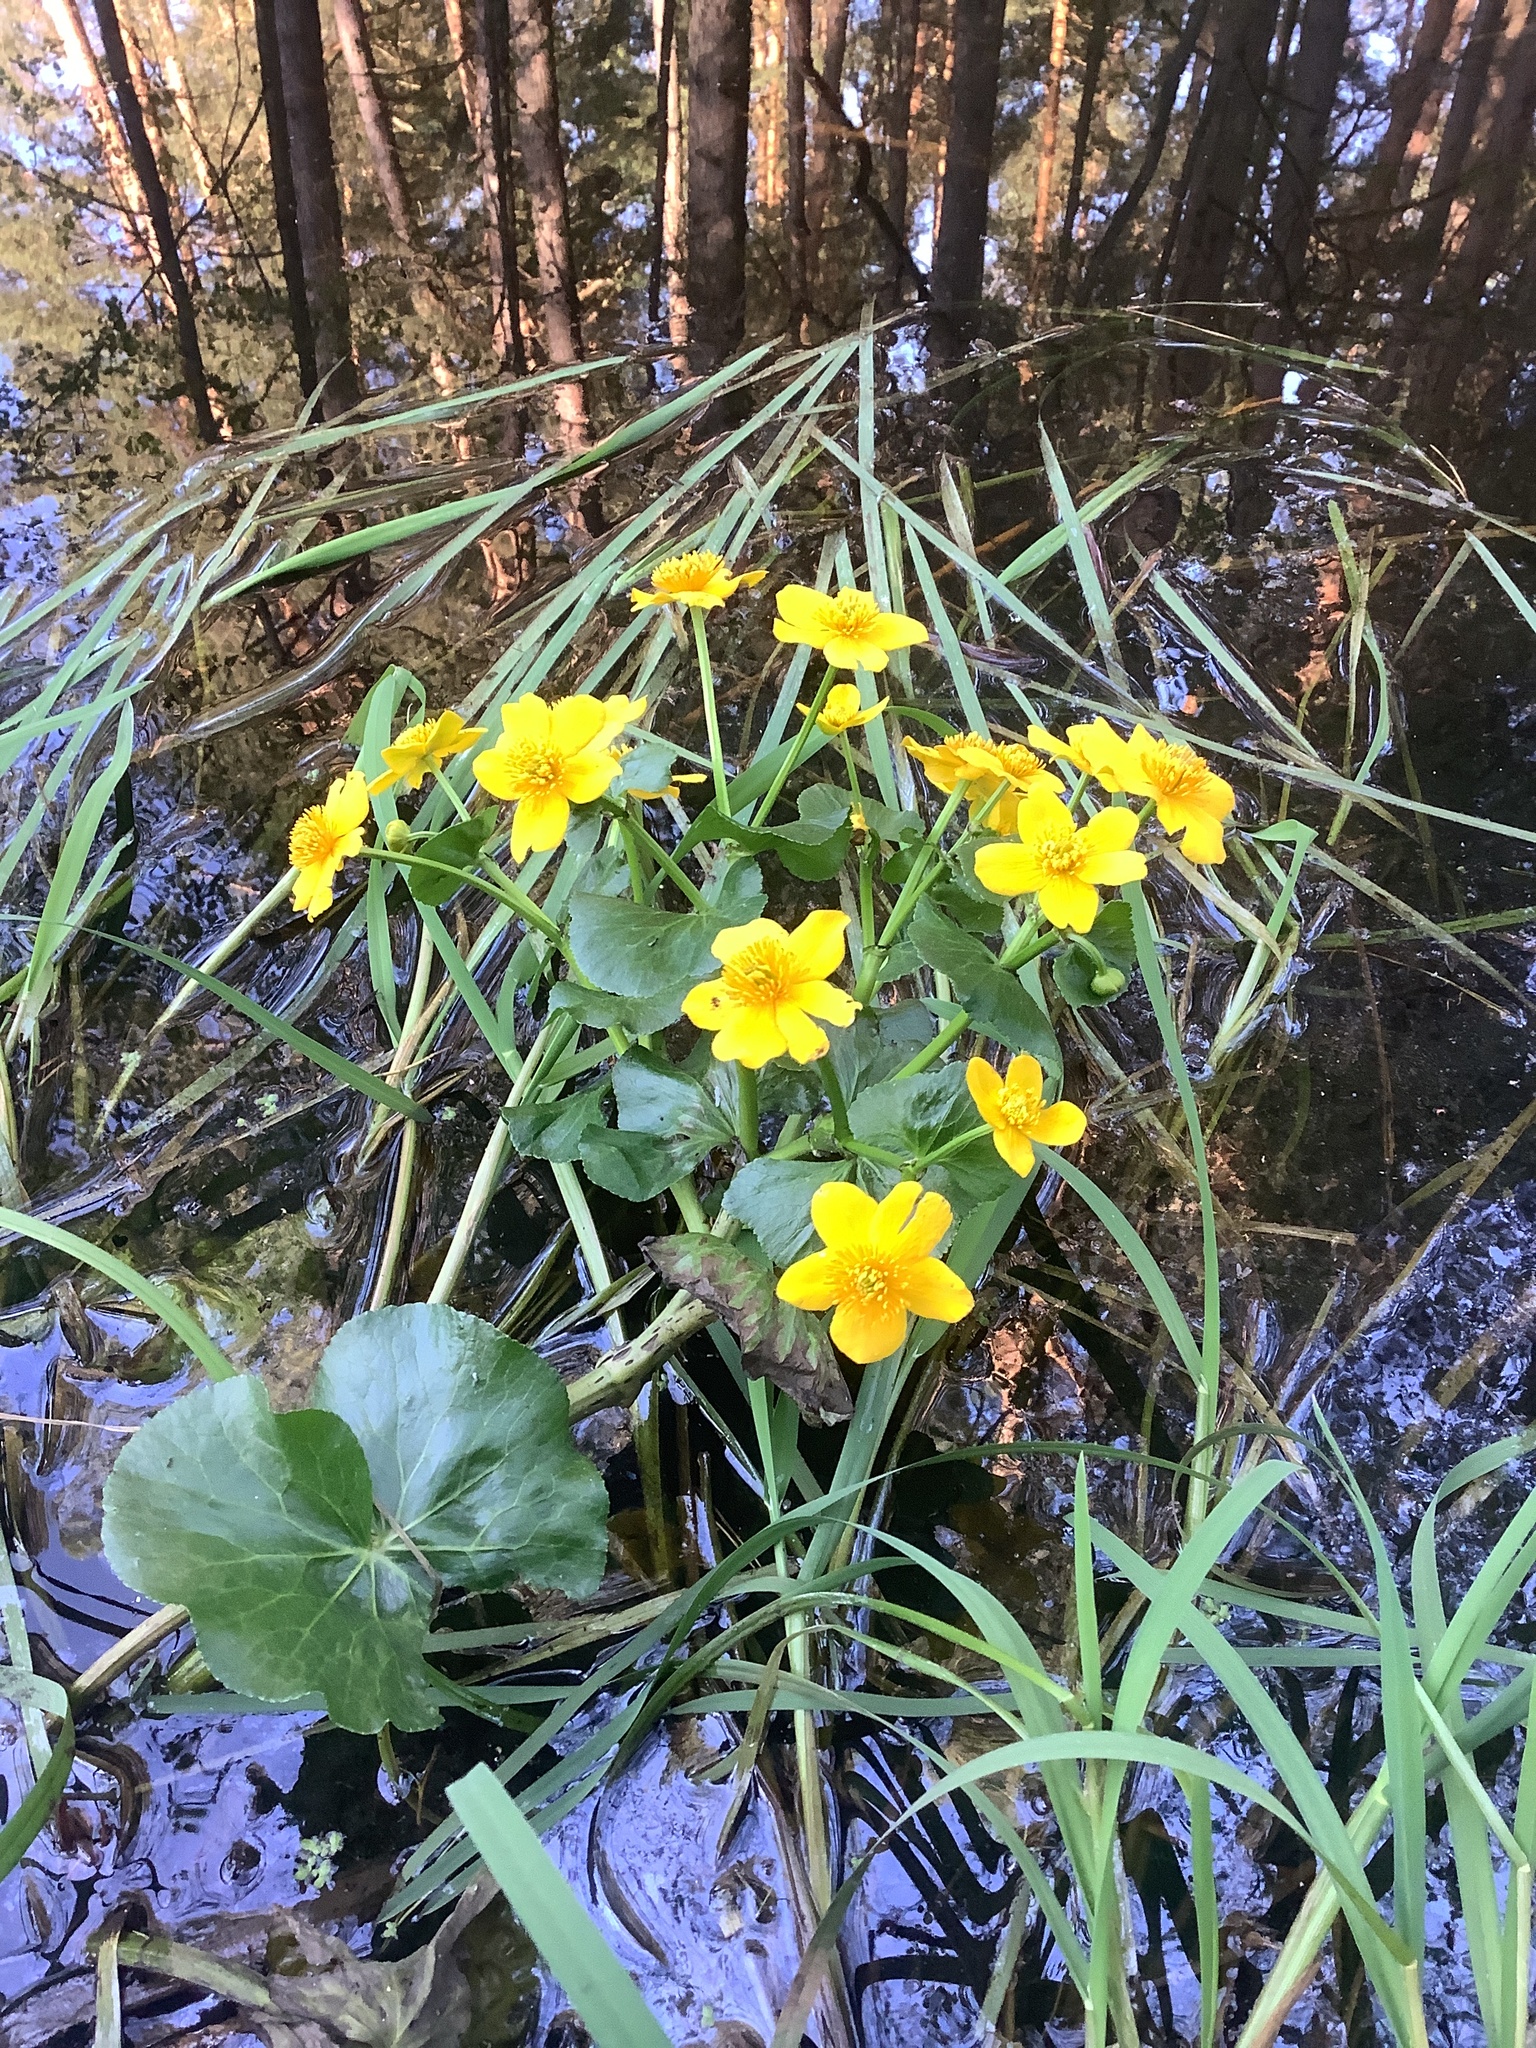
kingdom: Plantae
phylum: Tracheophyta
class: Magnoliopsida
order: Ranunculales
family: Ranunculaceae
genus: Caltha
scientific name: Caltha palustris
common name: Marsh marigold
